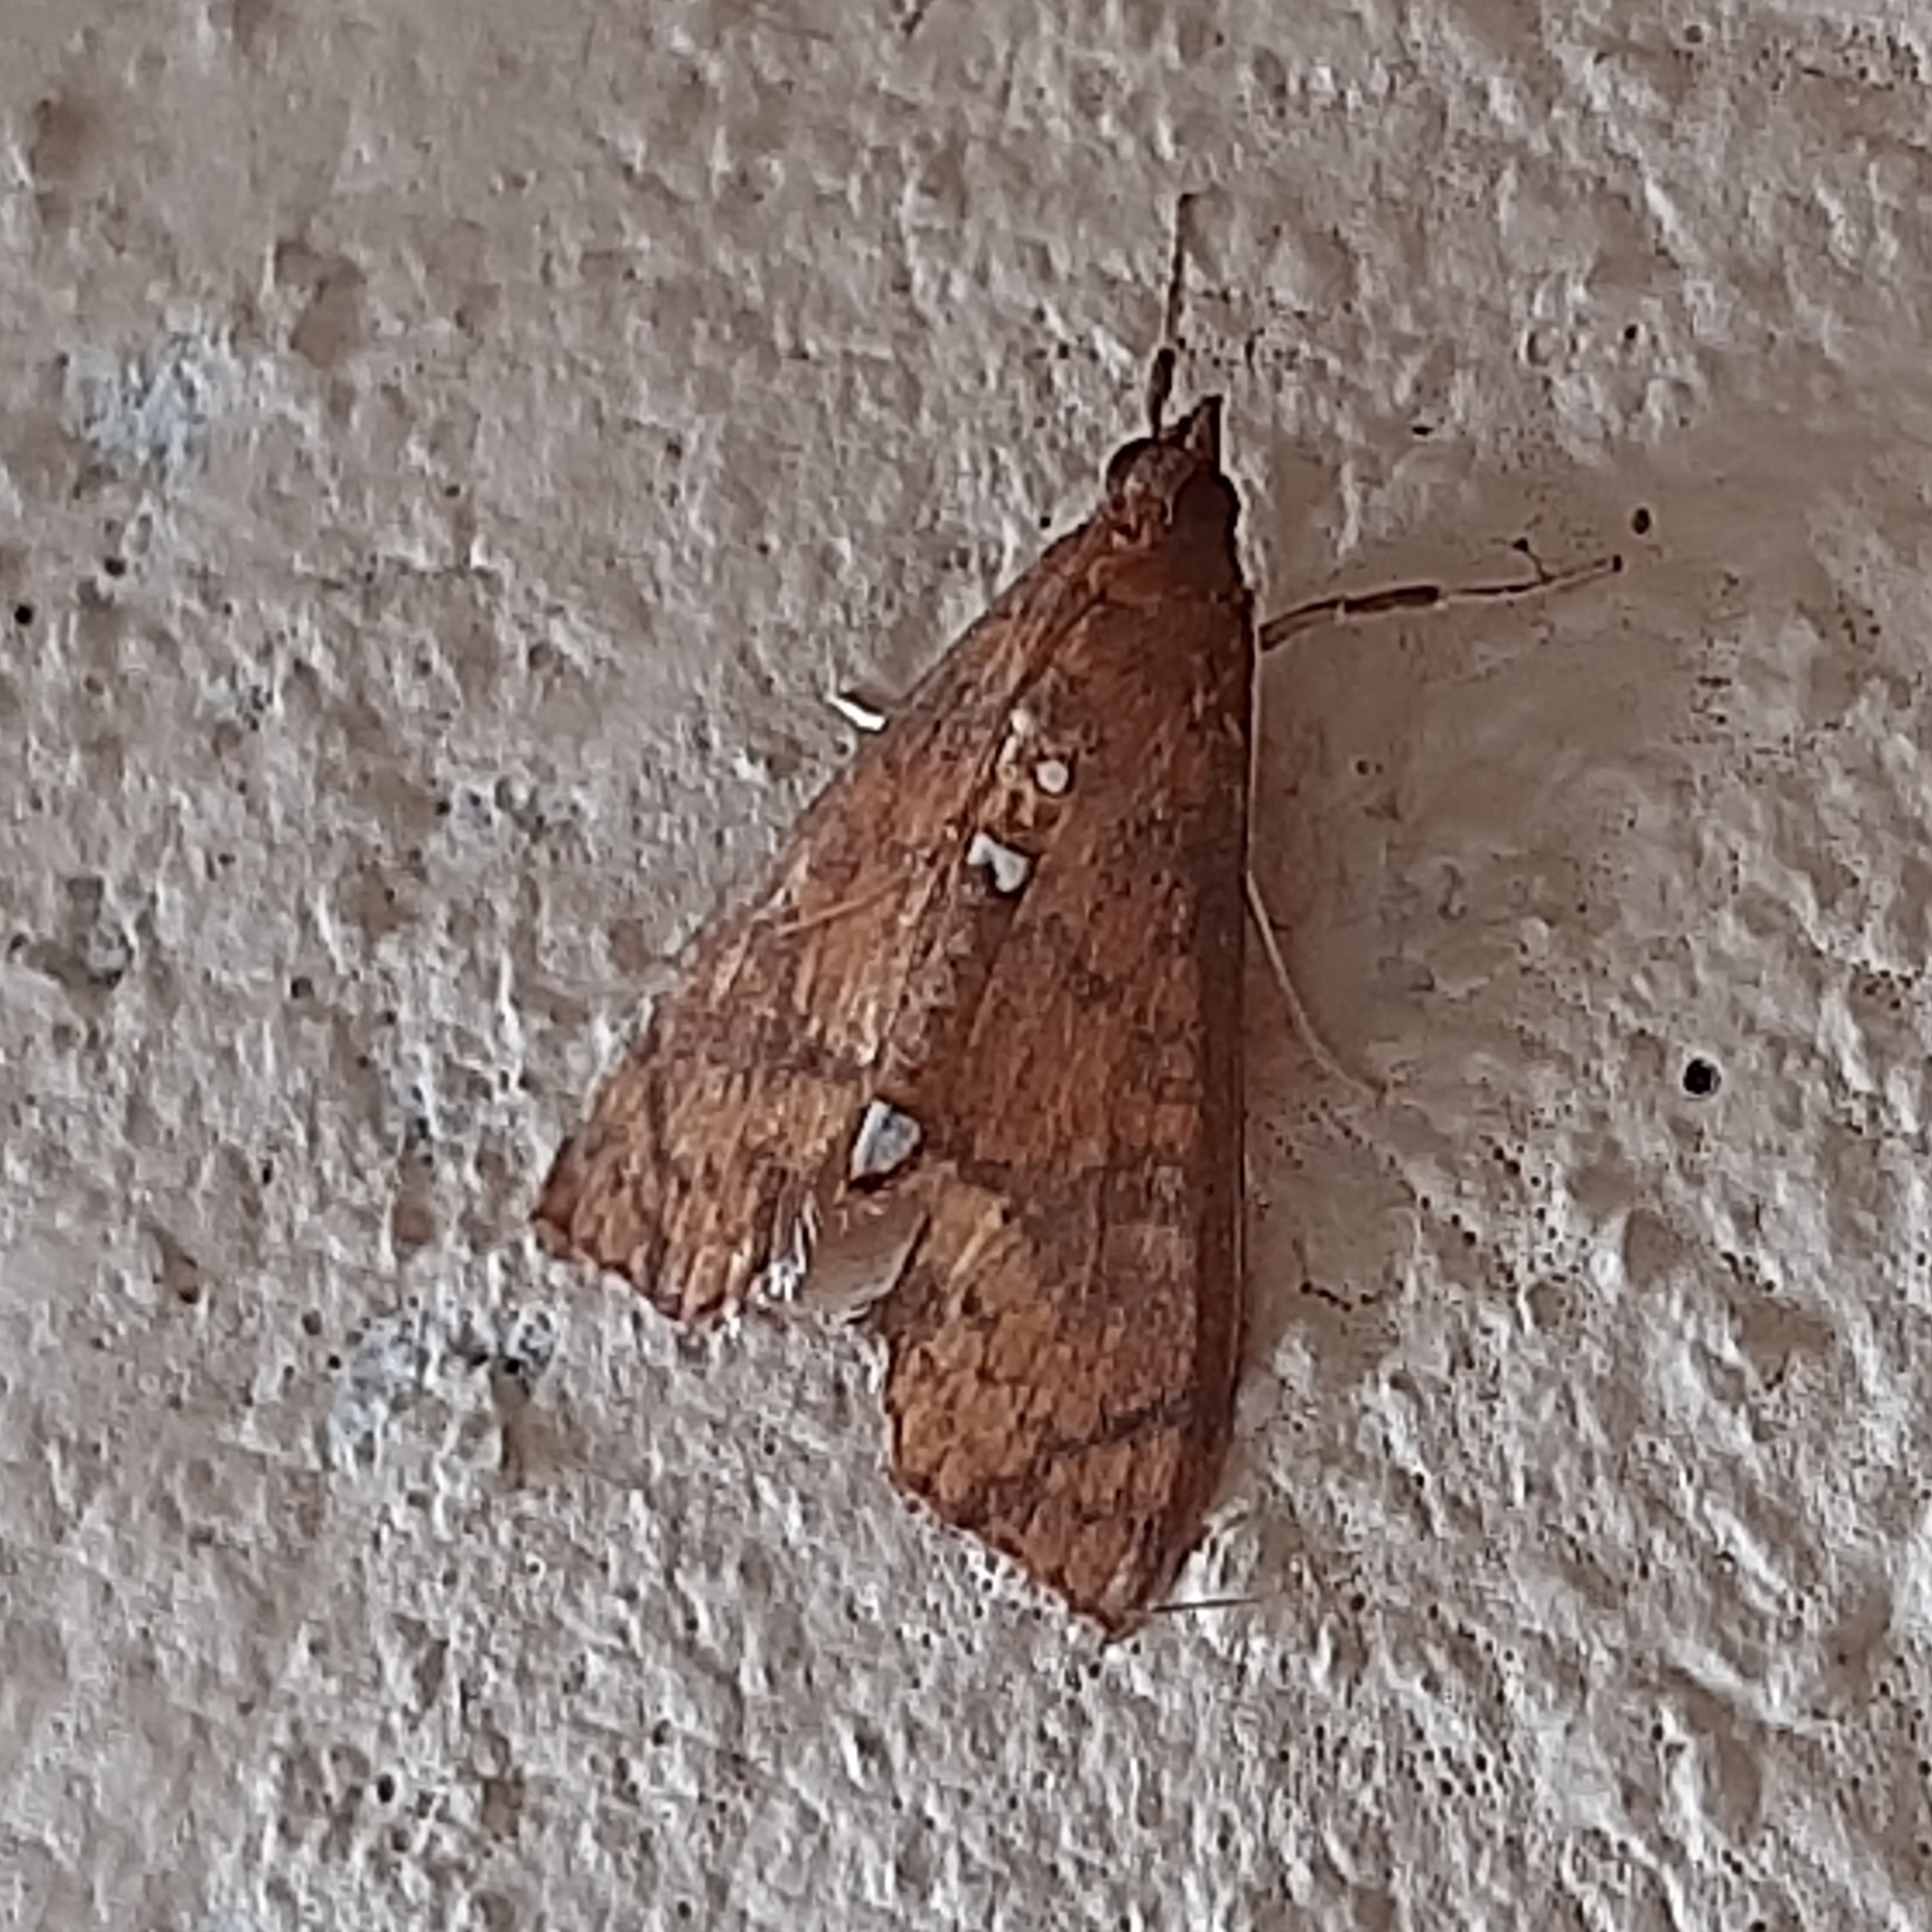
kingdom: Animalia
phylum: Arthropoda
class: Insecta
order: Lepidoptera
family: Crambidae
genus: Liopasia
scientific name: Liopasia ochracealis
